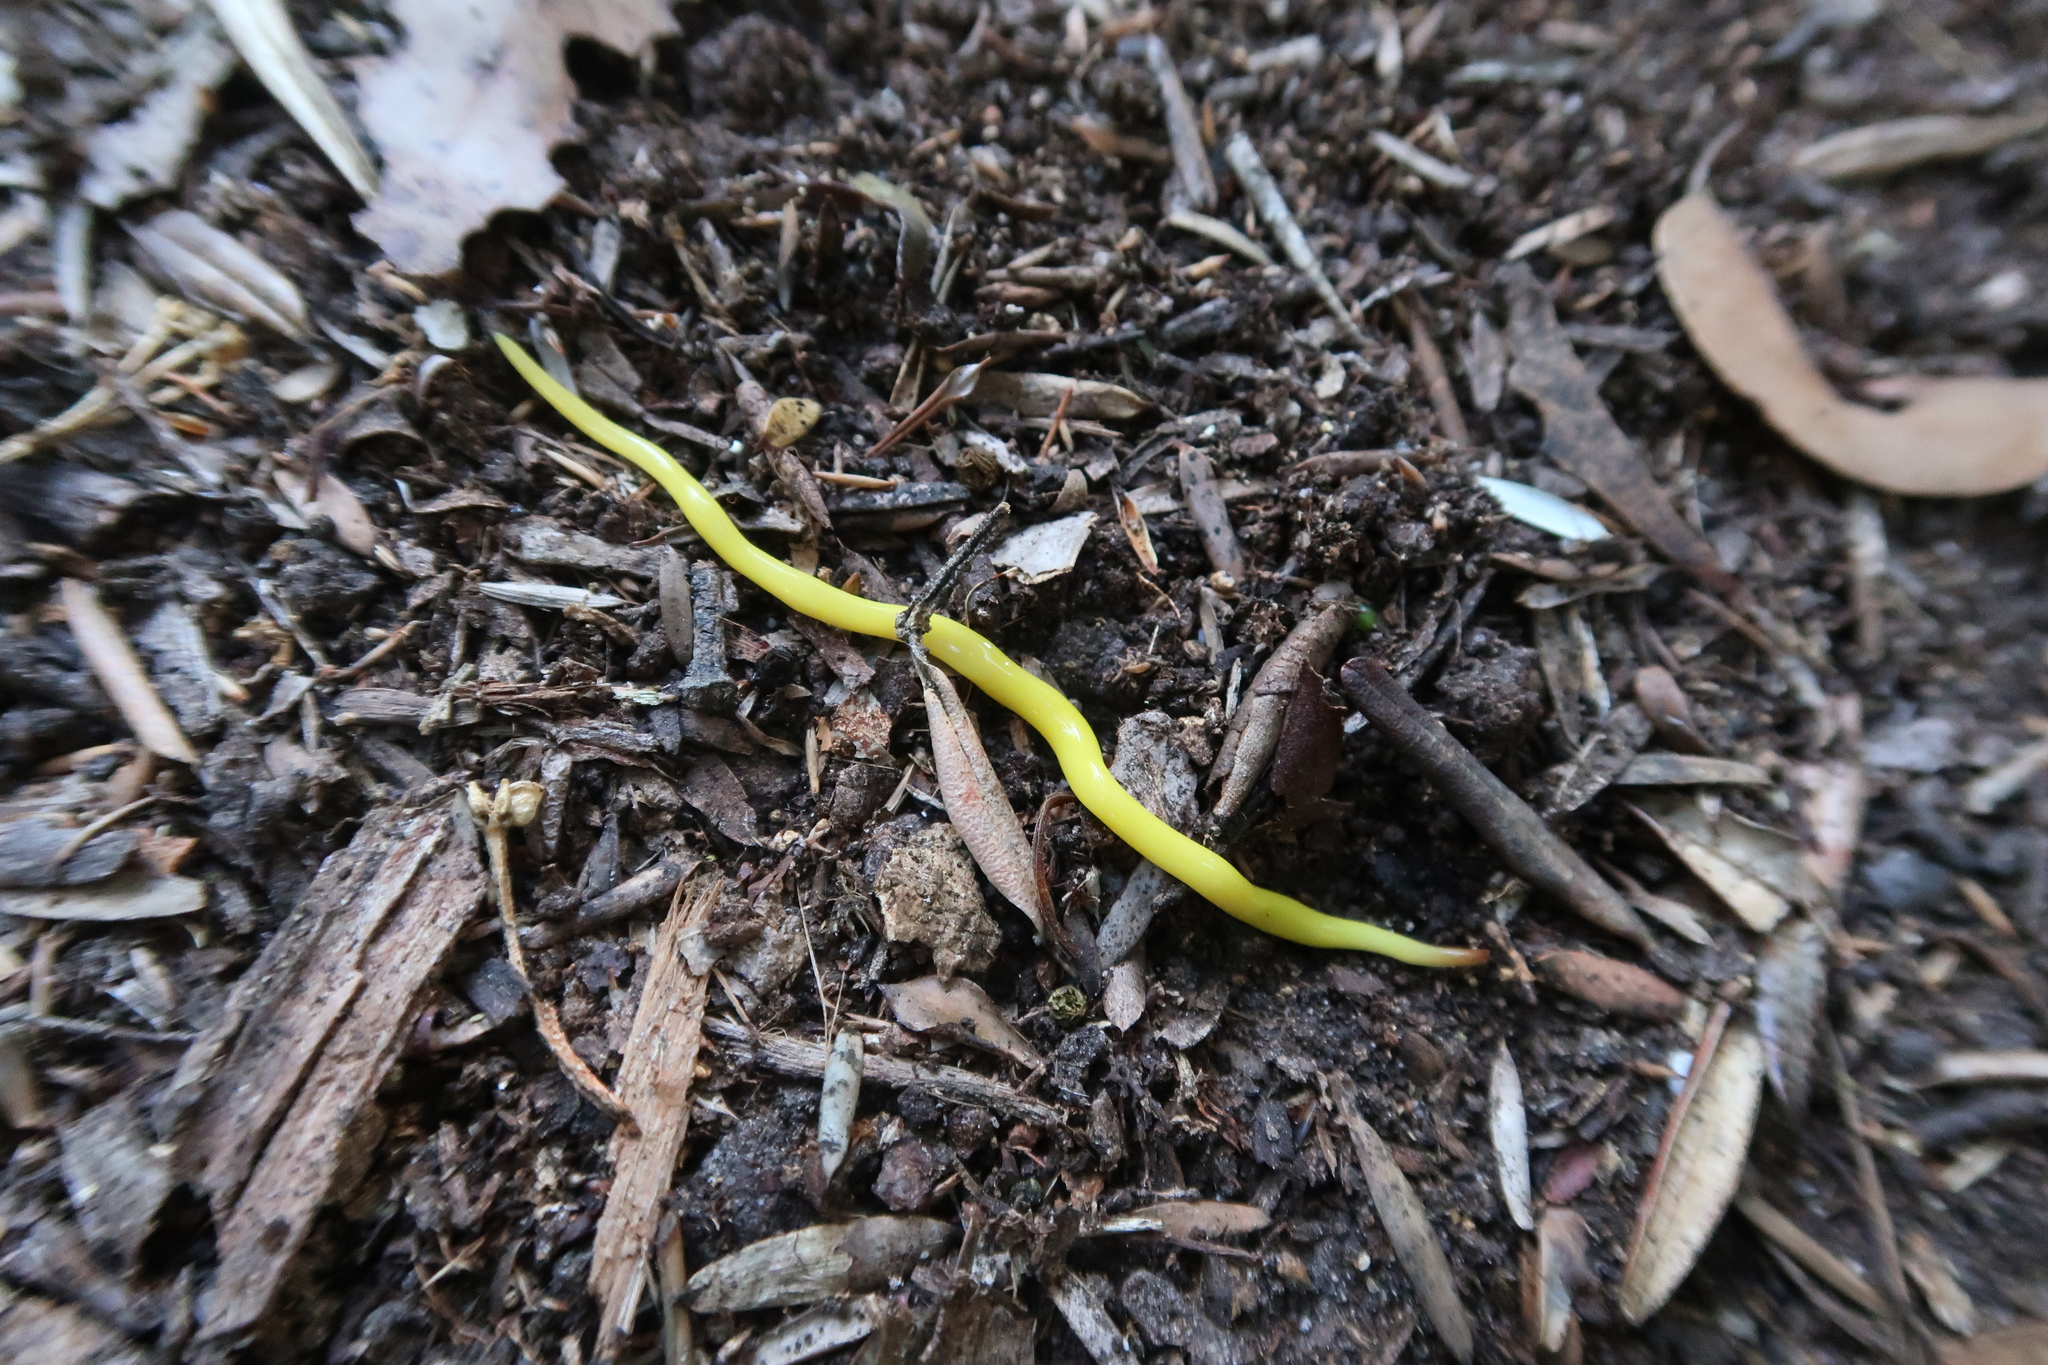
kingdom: Animalia
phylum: Platyhelminthes
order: Tricladida
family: Geoplanidae
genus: Fletchamia
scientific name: Fletchamia sugdeni
